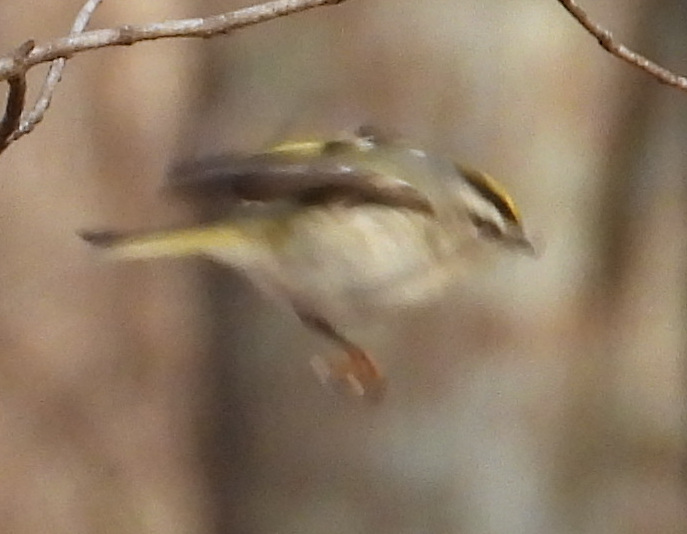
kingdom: Animalia
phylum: Chordata
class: Aves
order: Passeriformes
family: Regulidae
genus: Regulus
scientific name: Regulus satrapa
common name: Golden-crowned kinglet
